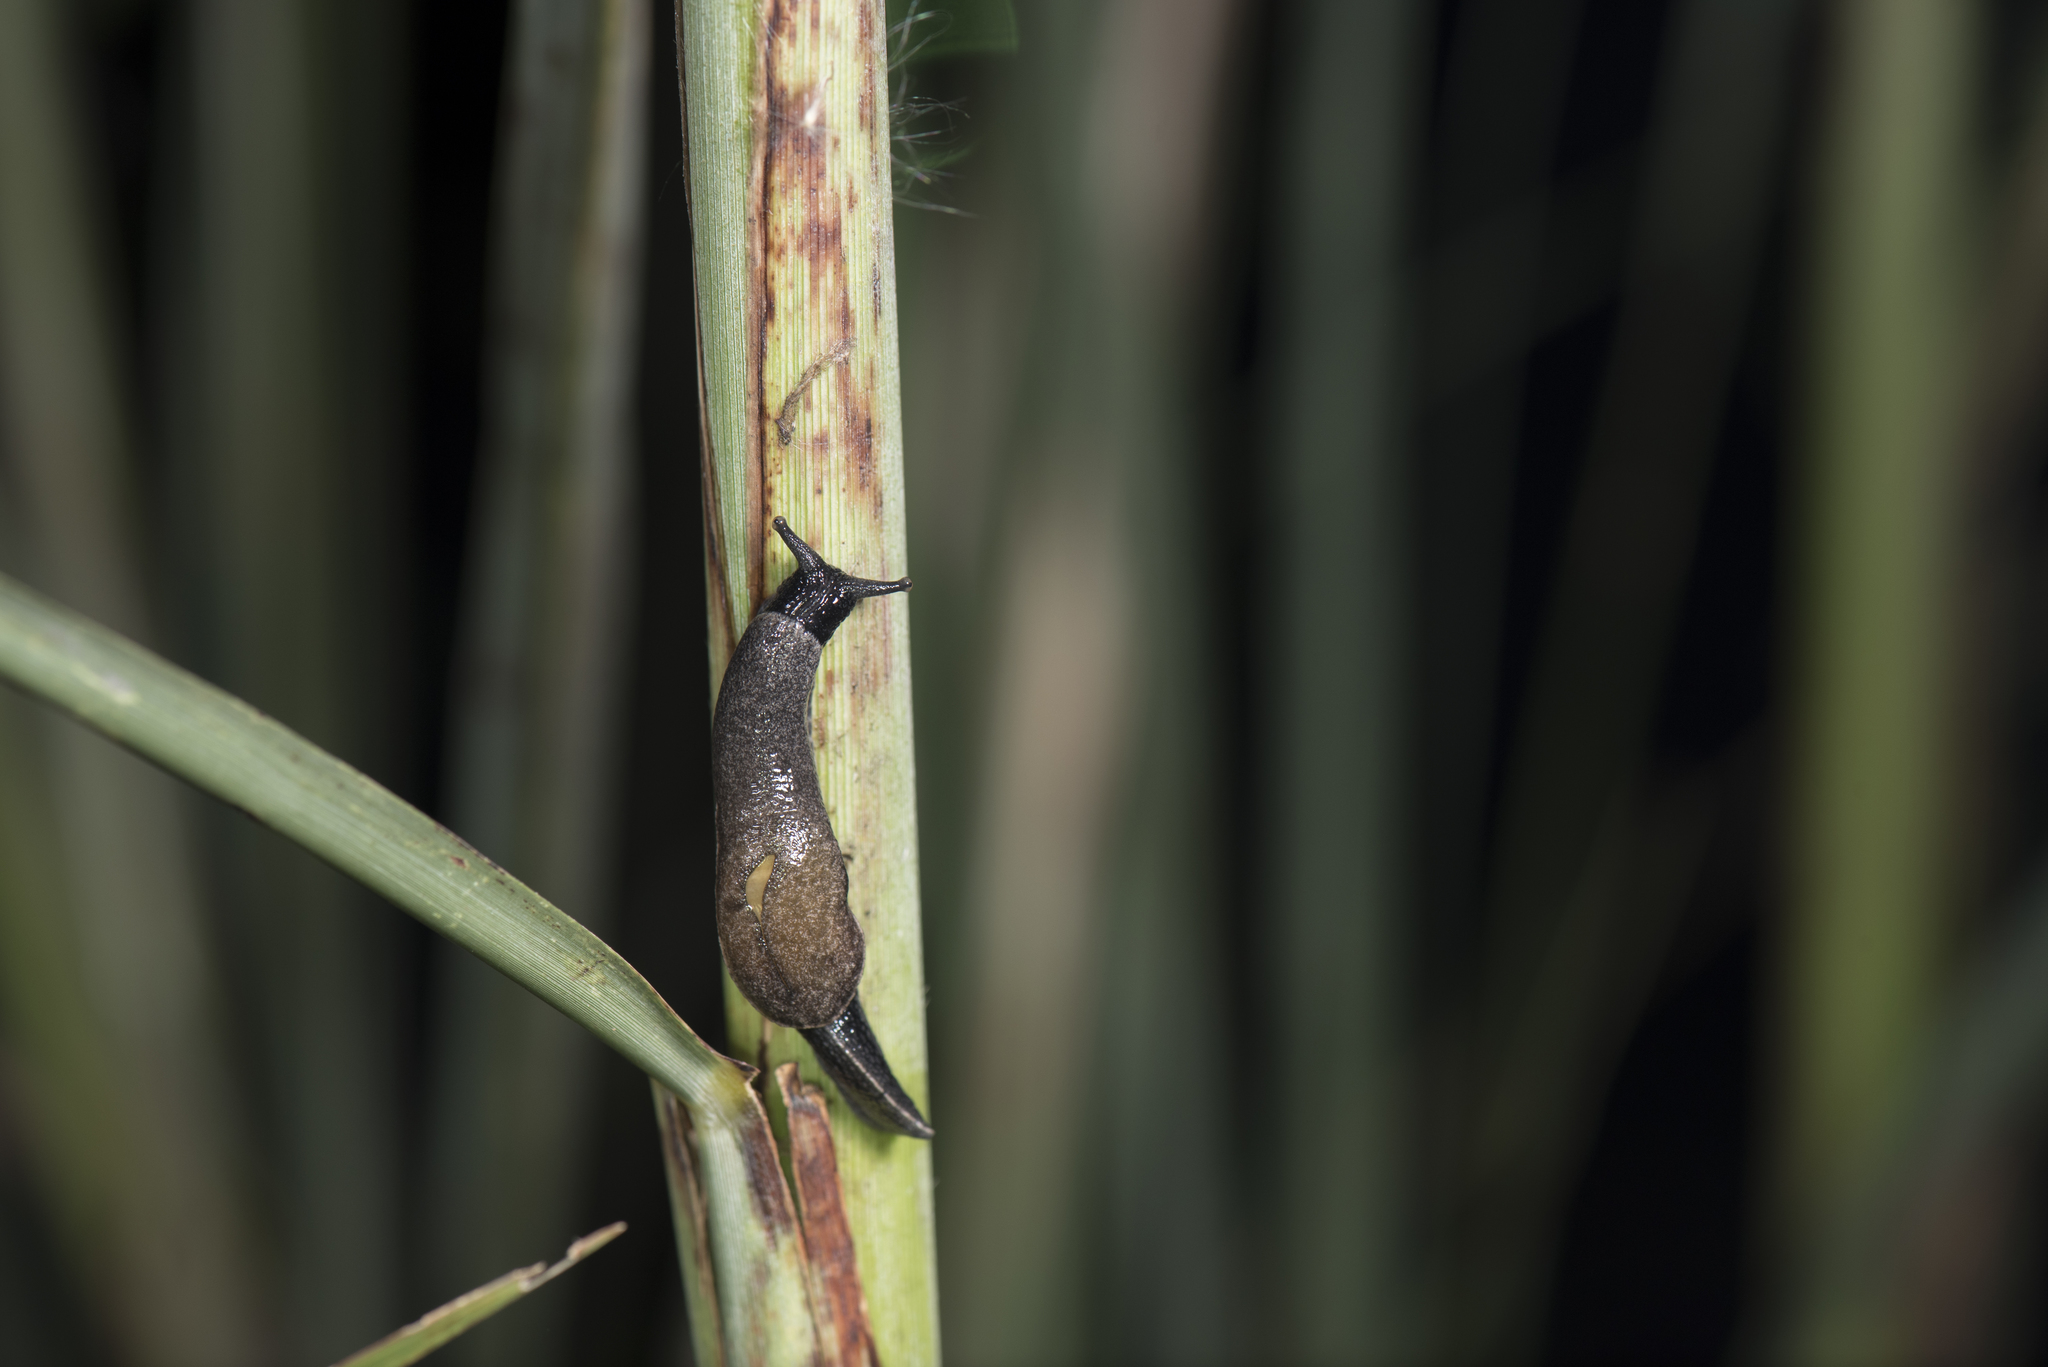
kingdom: Animalia
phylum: Mollusca
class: Gastropoda
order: Stylommatophora
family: Ariophantidae
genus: Parmarion
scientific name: Parmarion martensi
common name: Semi-slug
